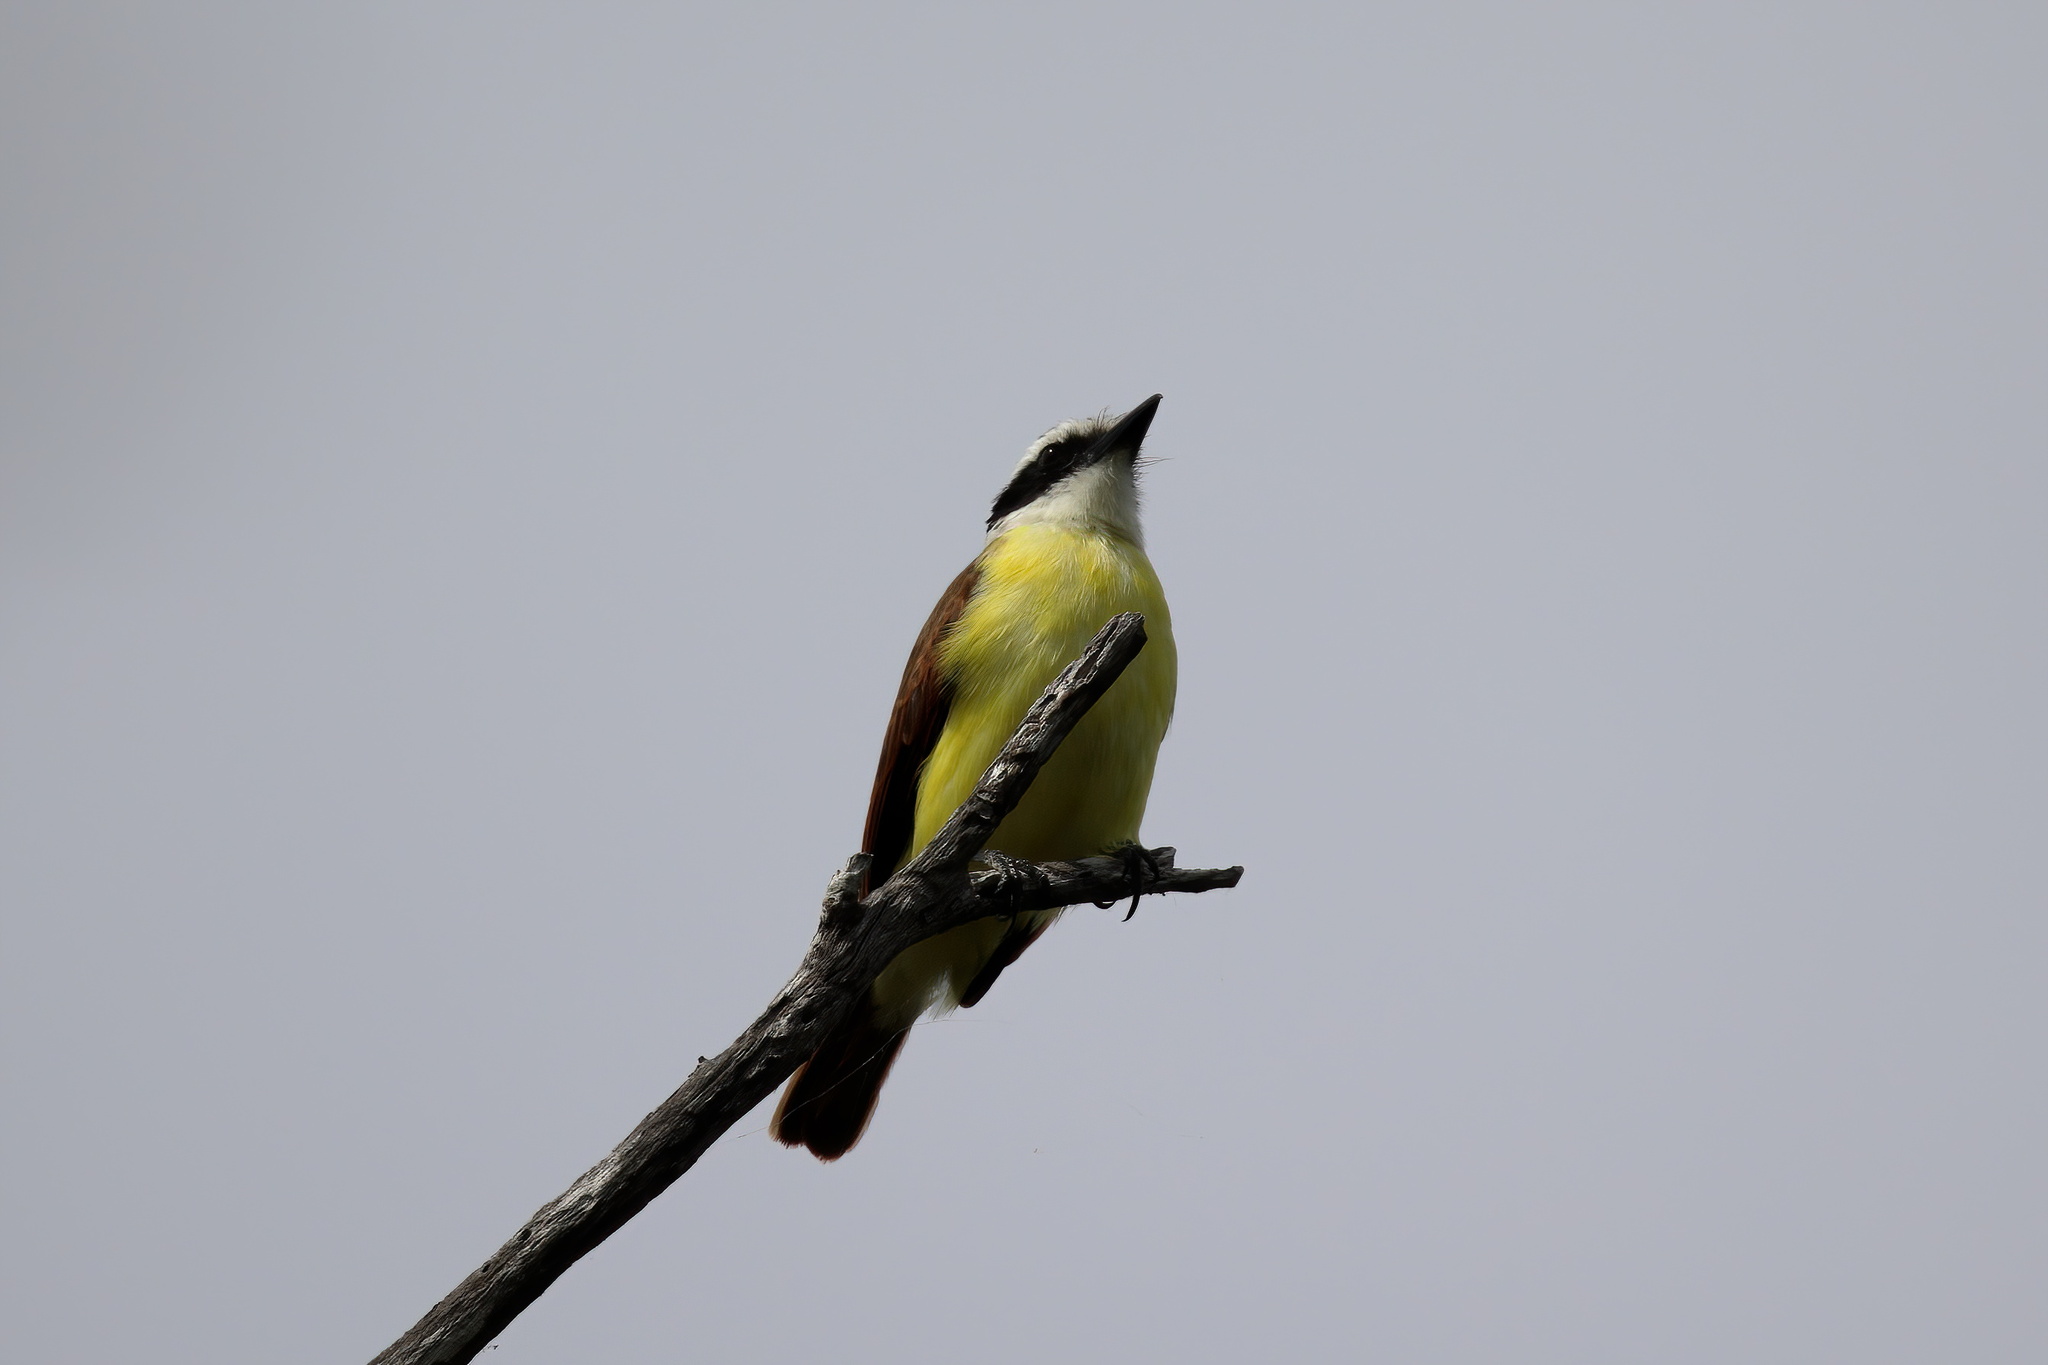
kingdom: Animalia
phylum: Chordata
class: Aves
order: Passeriformes
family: Tyrannidae
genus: Pitangus
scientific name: Pitangus sulphuratus
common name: Great kiskadee
